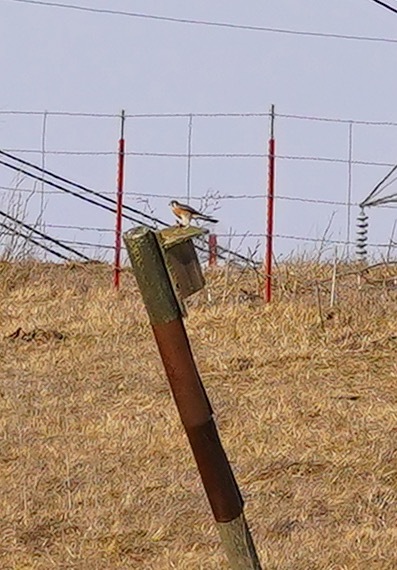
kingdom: Animalia
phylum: Chordata
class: Aves
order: Falconiformes
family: Falconidae
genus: Falco
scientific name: Falco sparverius
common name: American kestrel
